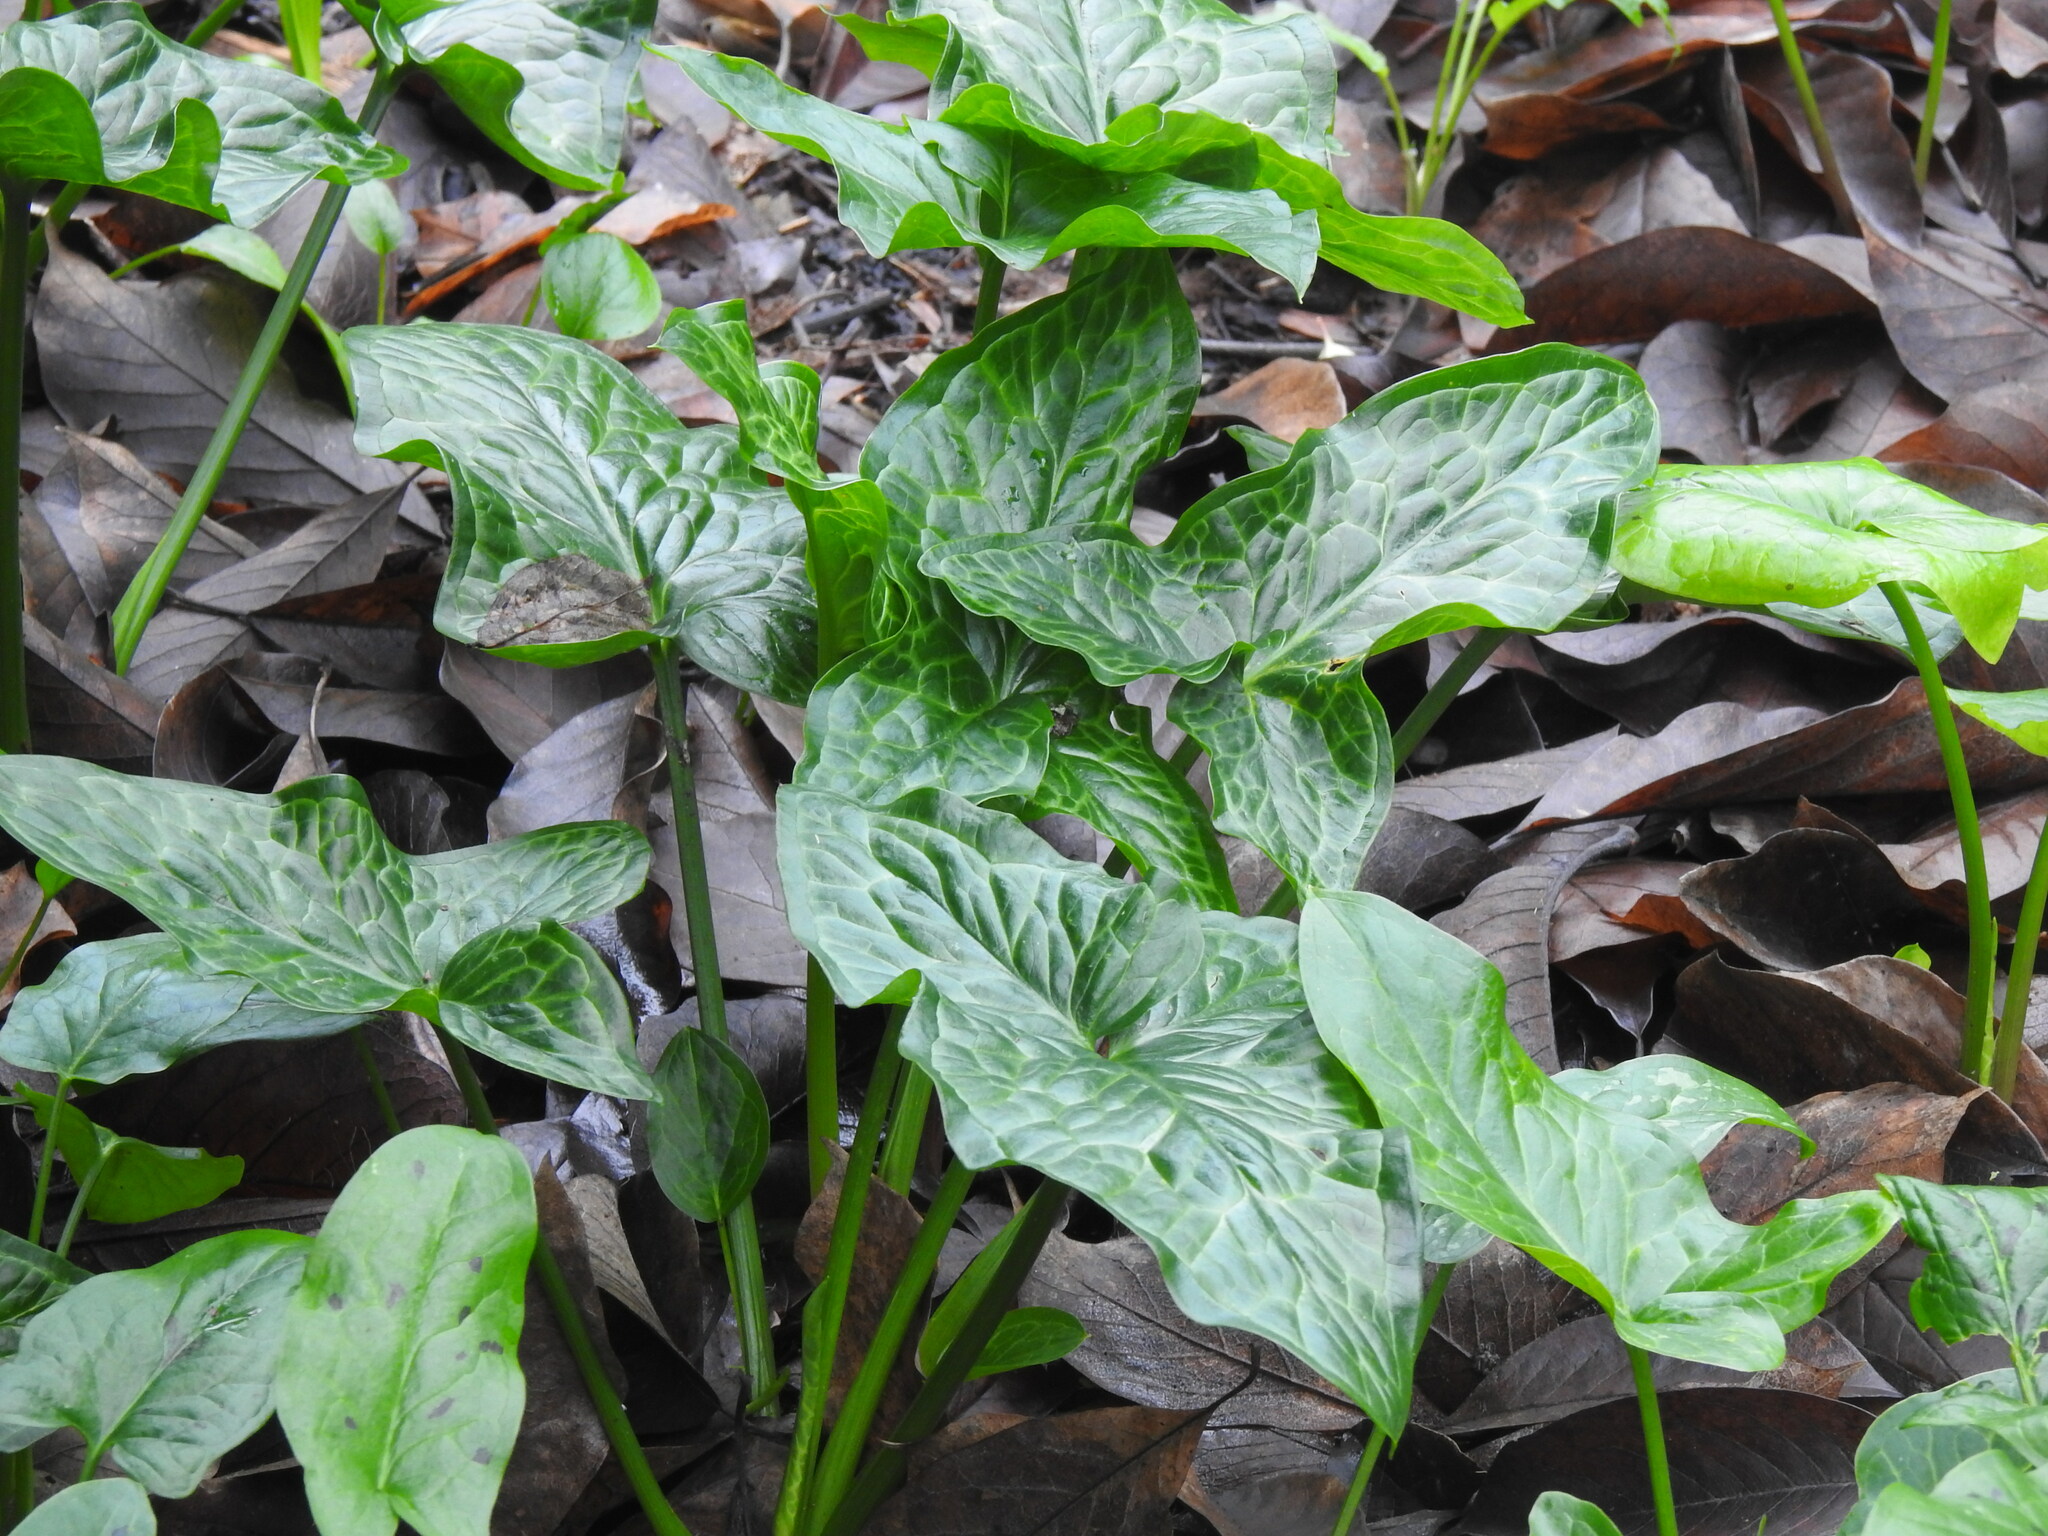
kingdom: Plantae
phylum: Tracheophyta
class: Liliopsida
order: Alismatales
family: Araceae
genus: Arum
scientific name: Arum italicum
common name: Italian lords-and-ladies
